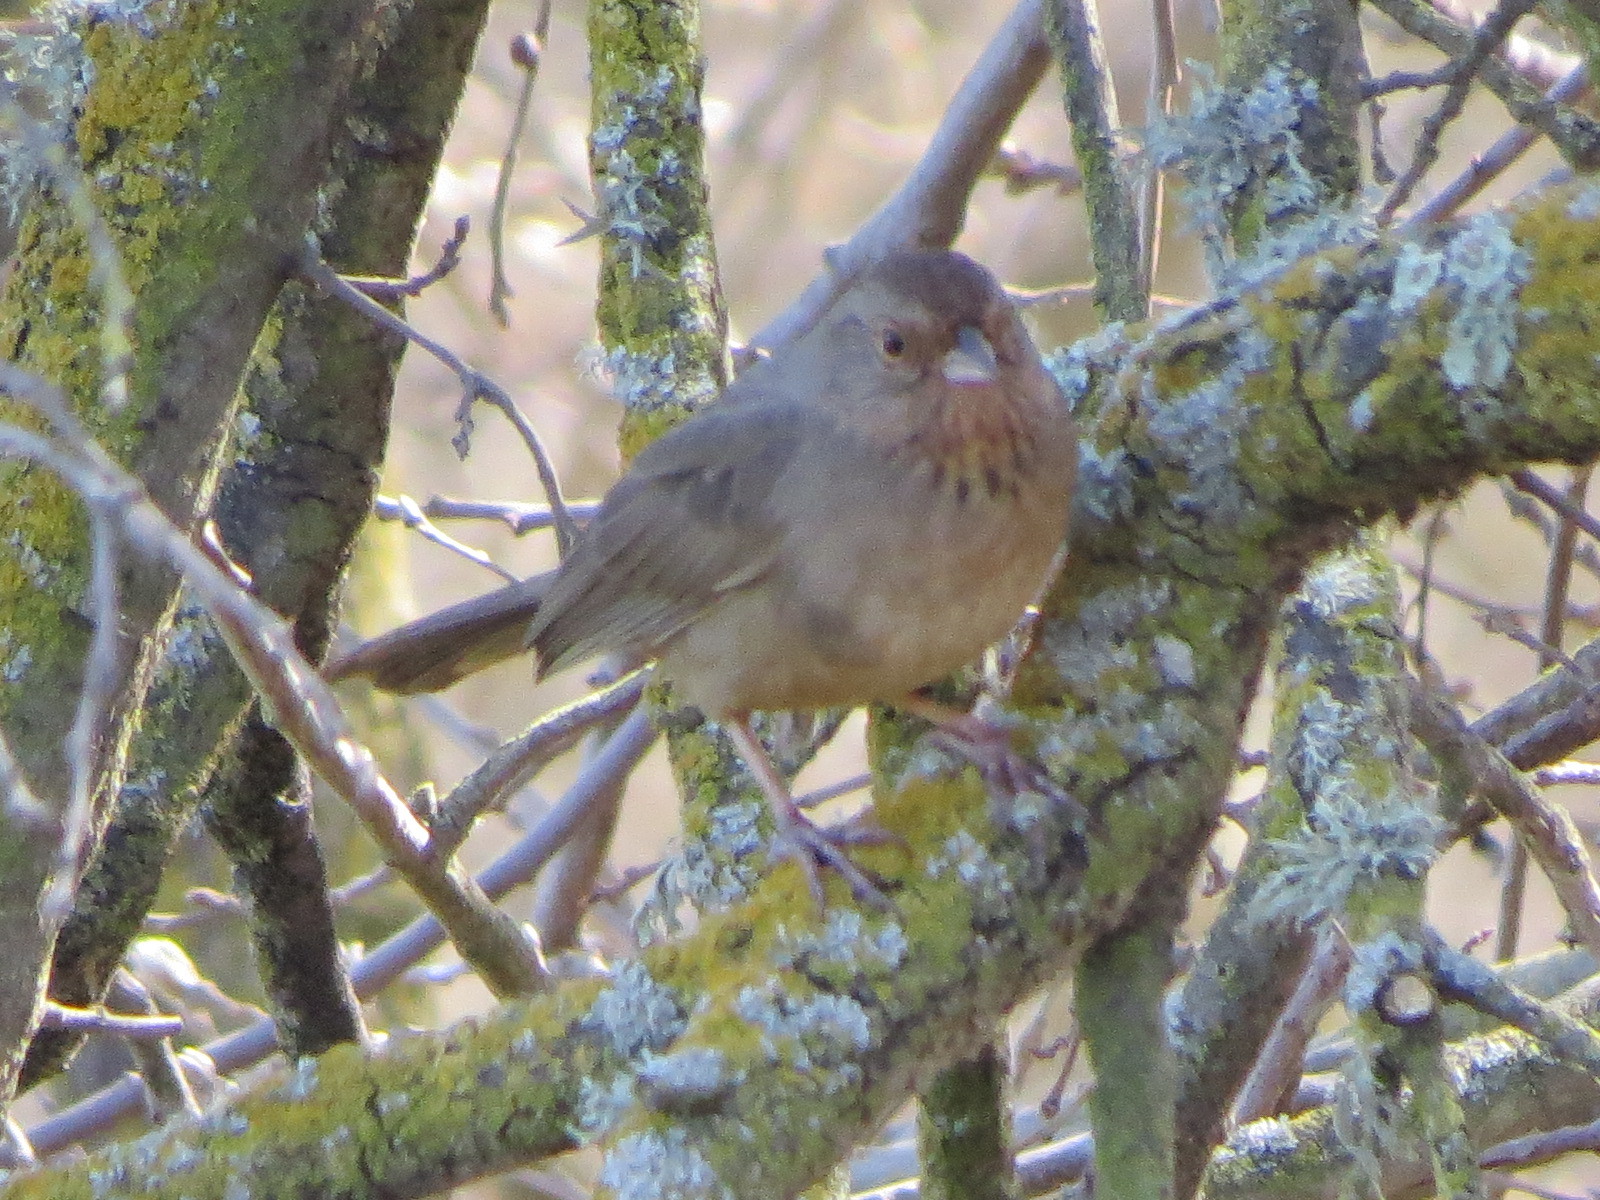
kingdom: Animalia
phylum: Chordata
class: Aves
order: Passeriformes
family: Passerellidae
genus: Melozone
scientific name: Melozone crissalis
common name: California towhee
